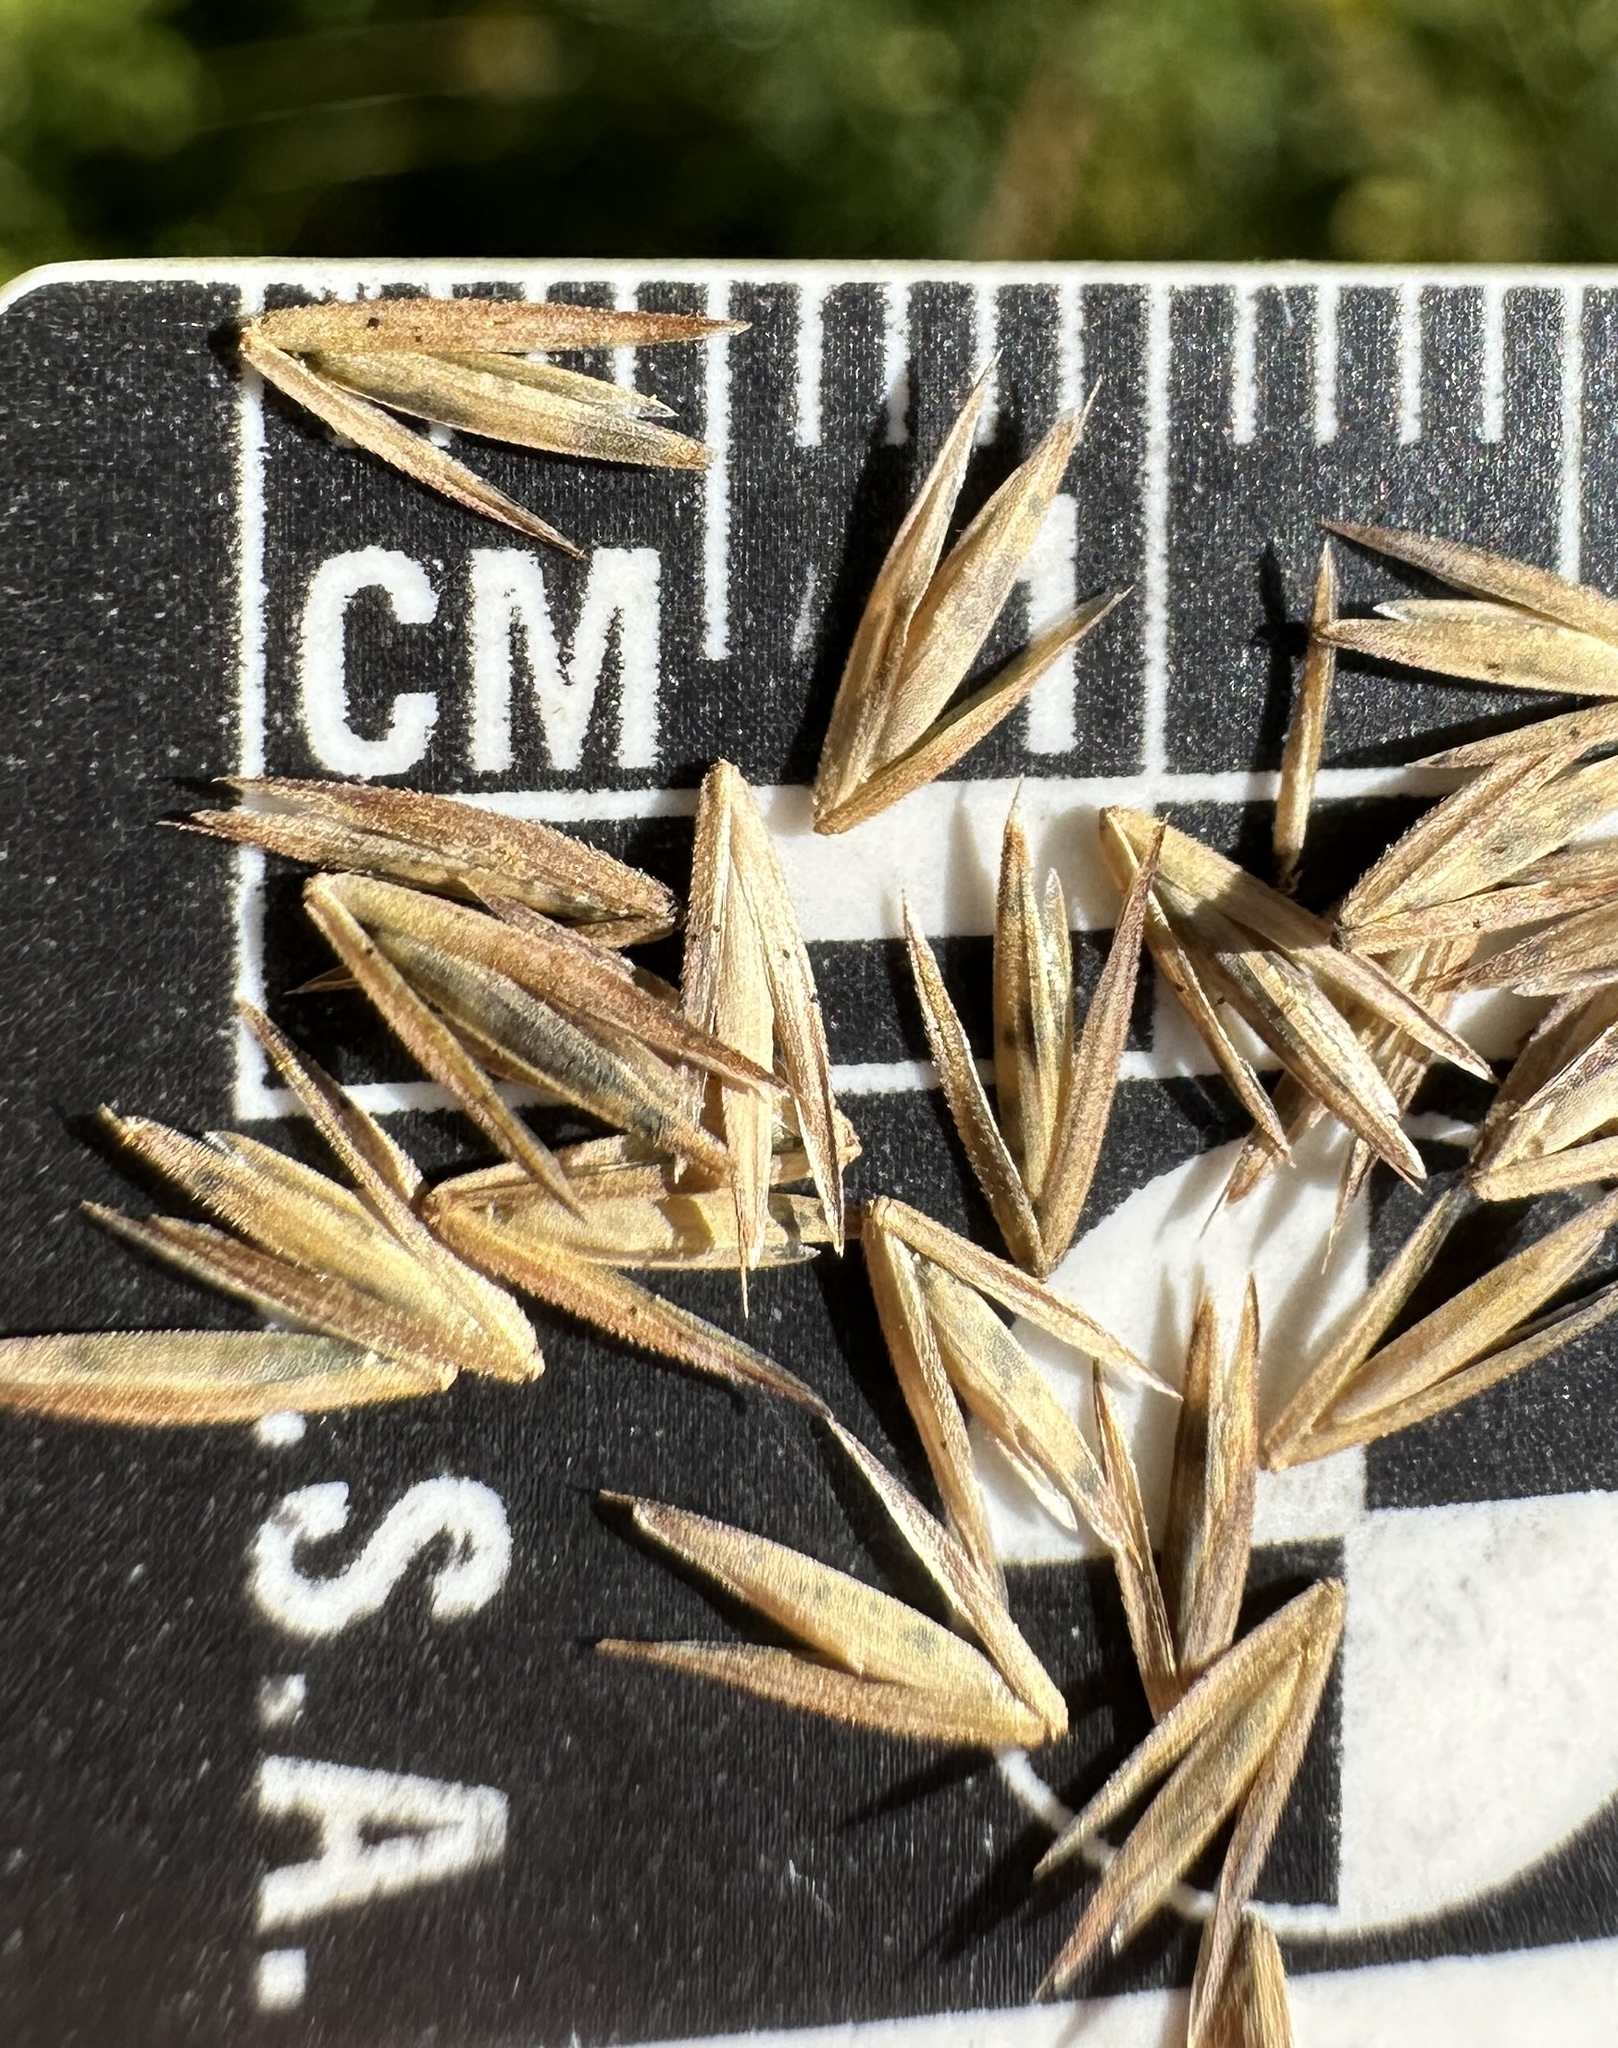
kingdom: Plantae
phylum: Tracheophyta
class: Liliopsida
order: Poales
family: Poaceae
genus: Cinna
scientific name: Cinna arundinacea
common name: Stout woodreed
